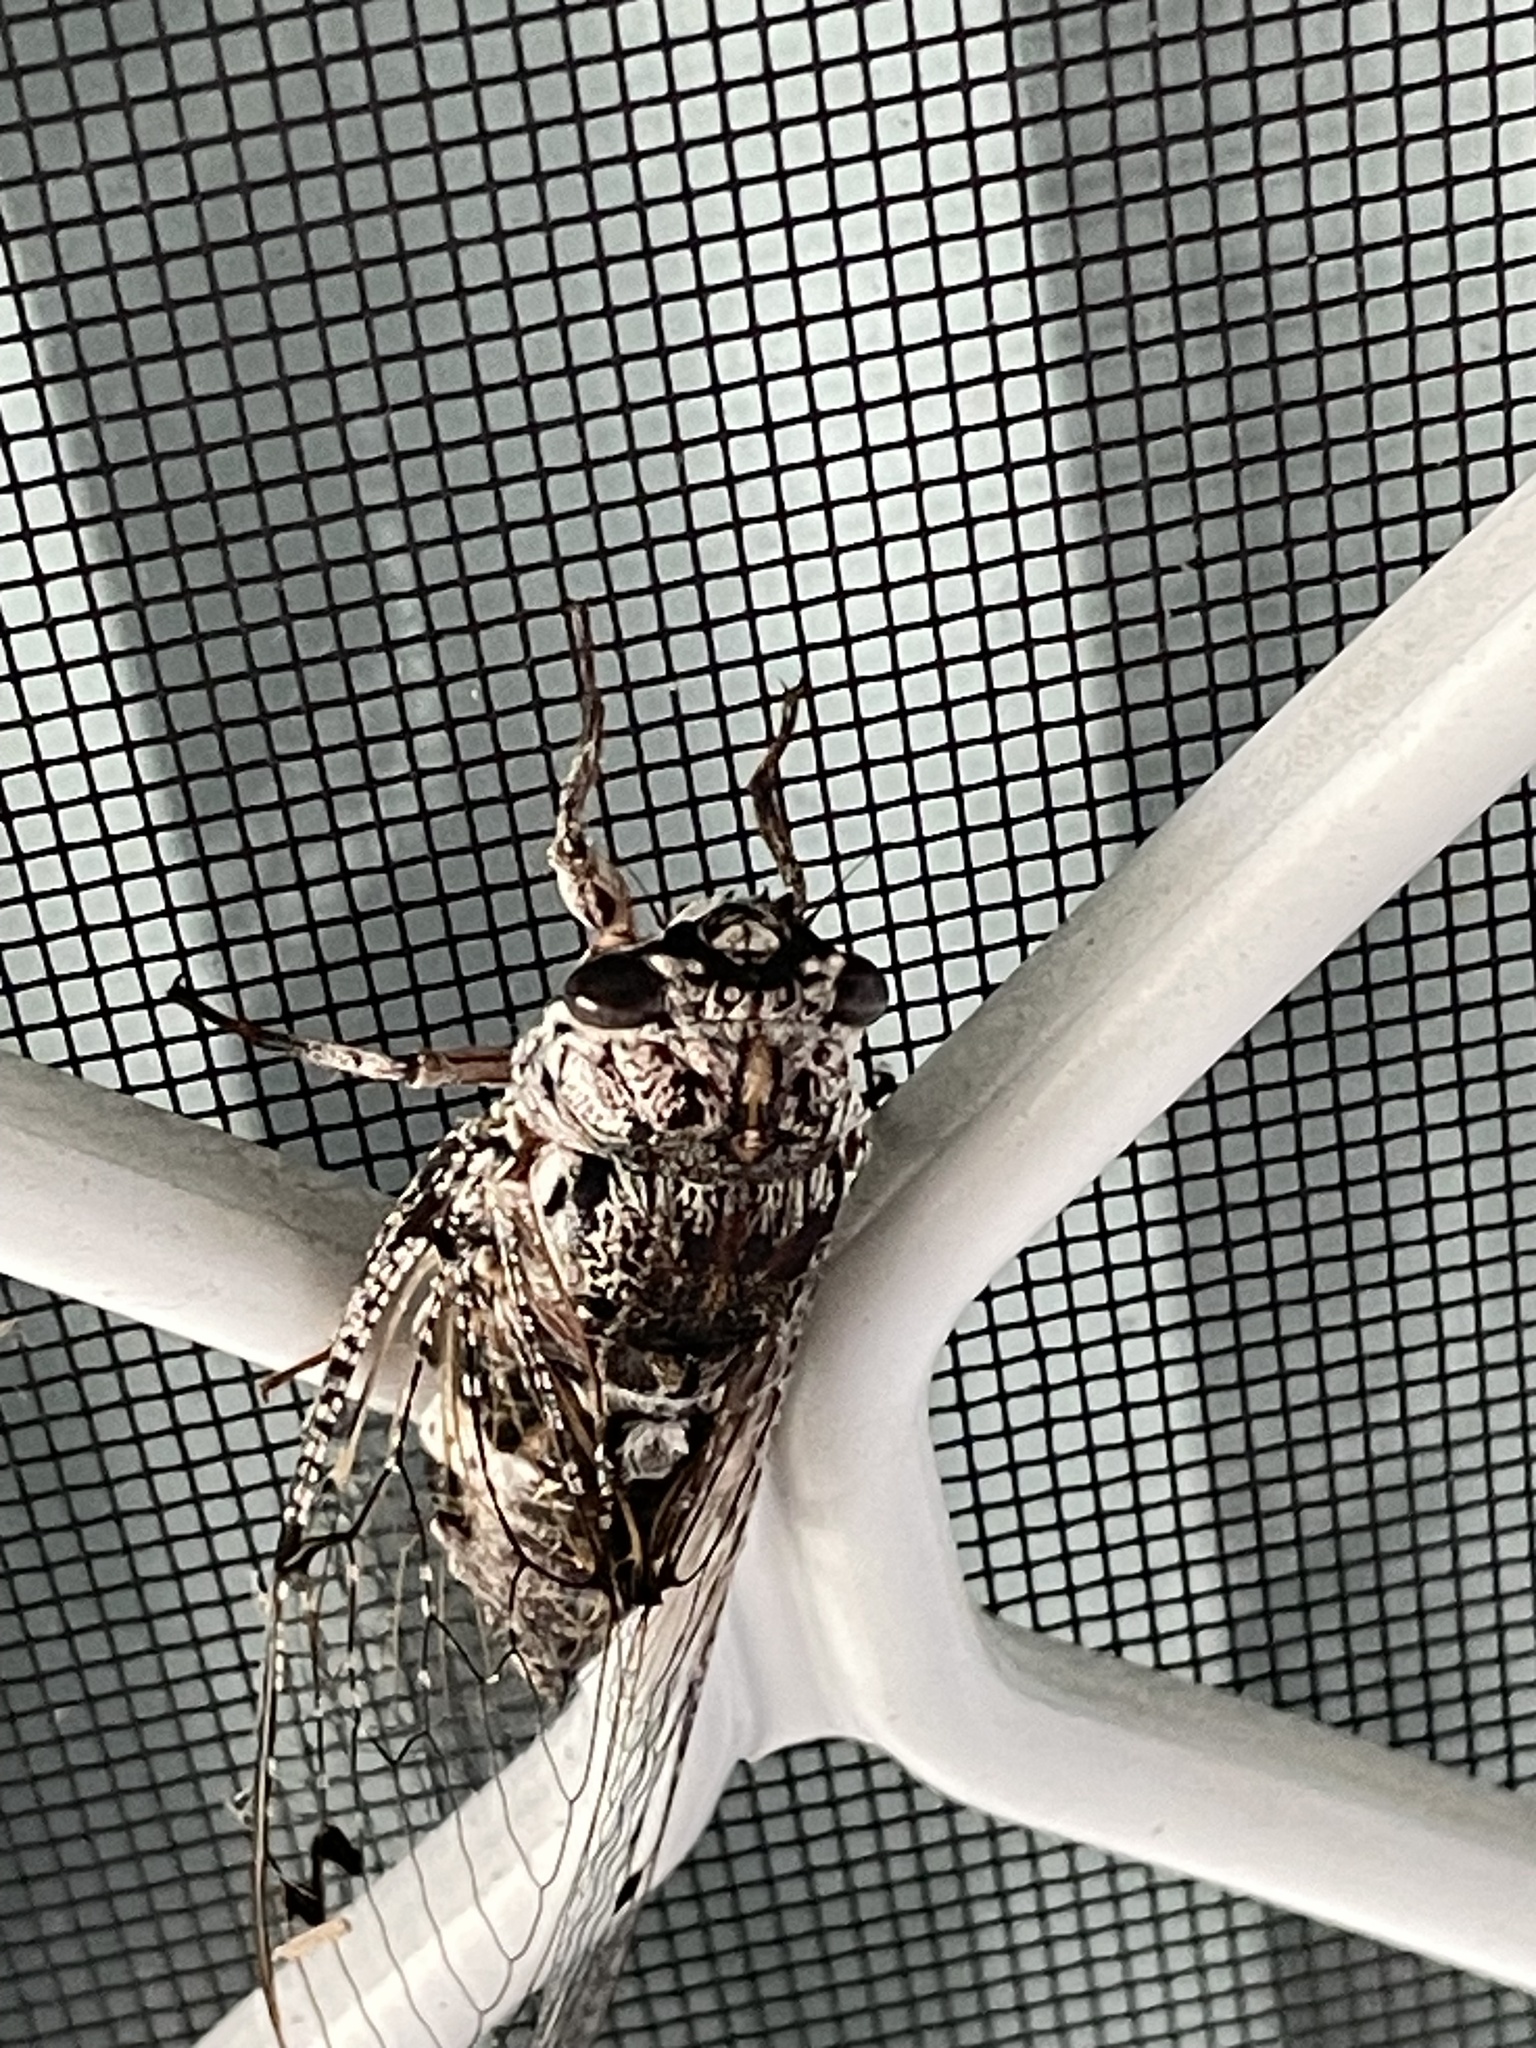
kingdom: Animalia
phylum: Arthropoda
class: Insecta
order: Hemiptera
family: Cicadidae
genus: Aleeta
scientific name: Aleeta curvicosta
